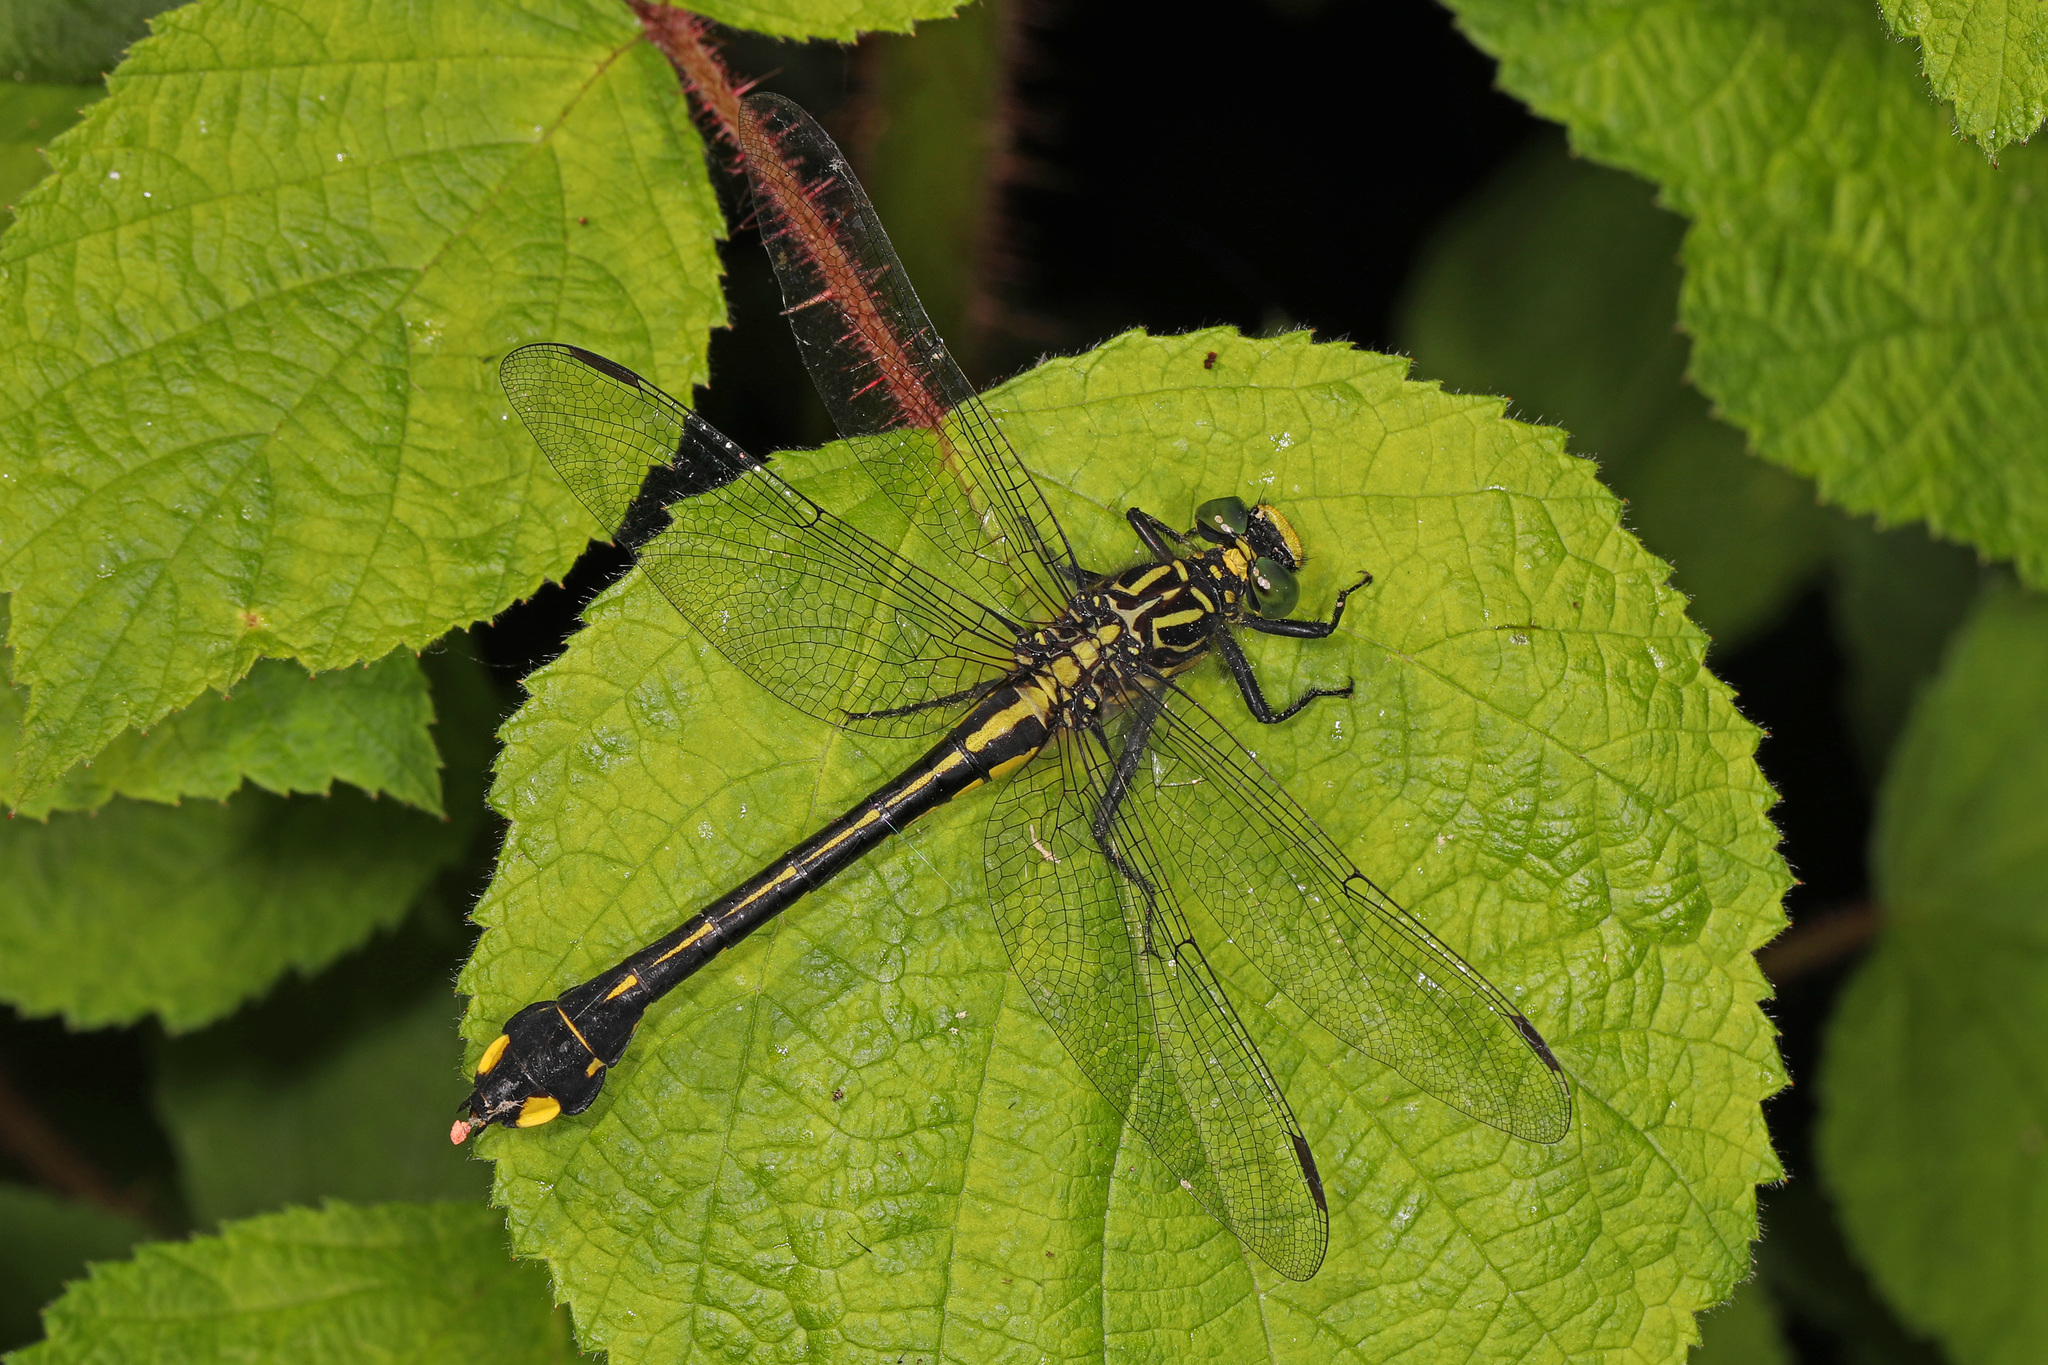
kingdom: Animalia
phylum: Arthropoda
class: Insecta
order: Odonata
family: Gomphidae
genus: Gomphurus
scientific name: Gomphurus vastus
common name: Cobra clubtail
